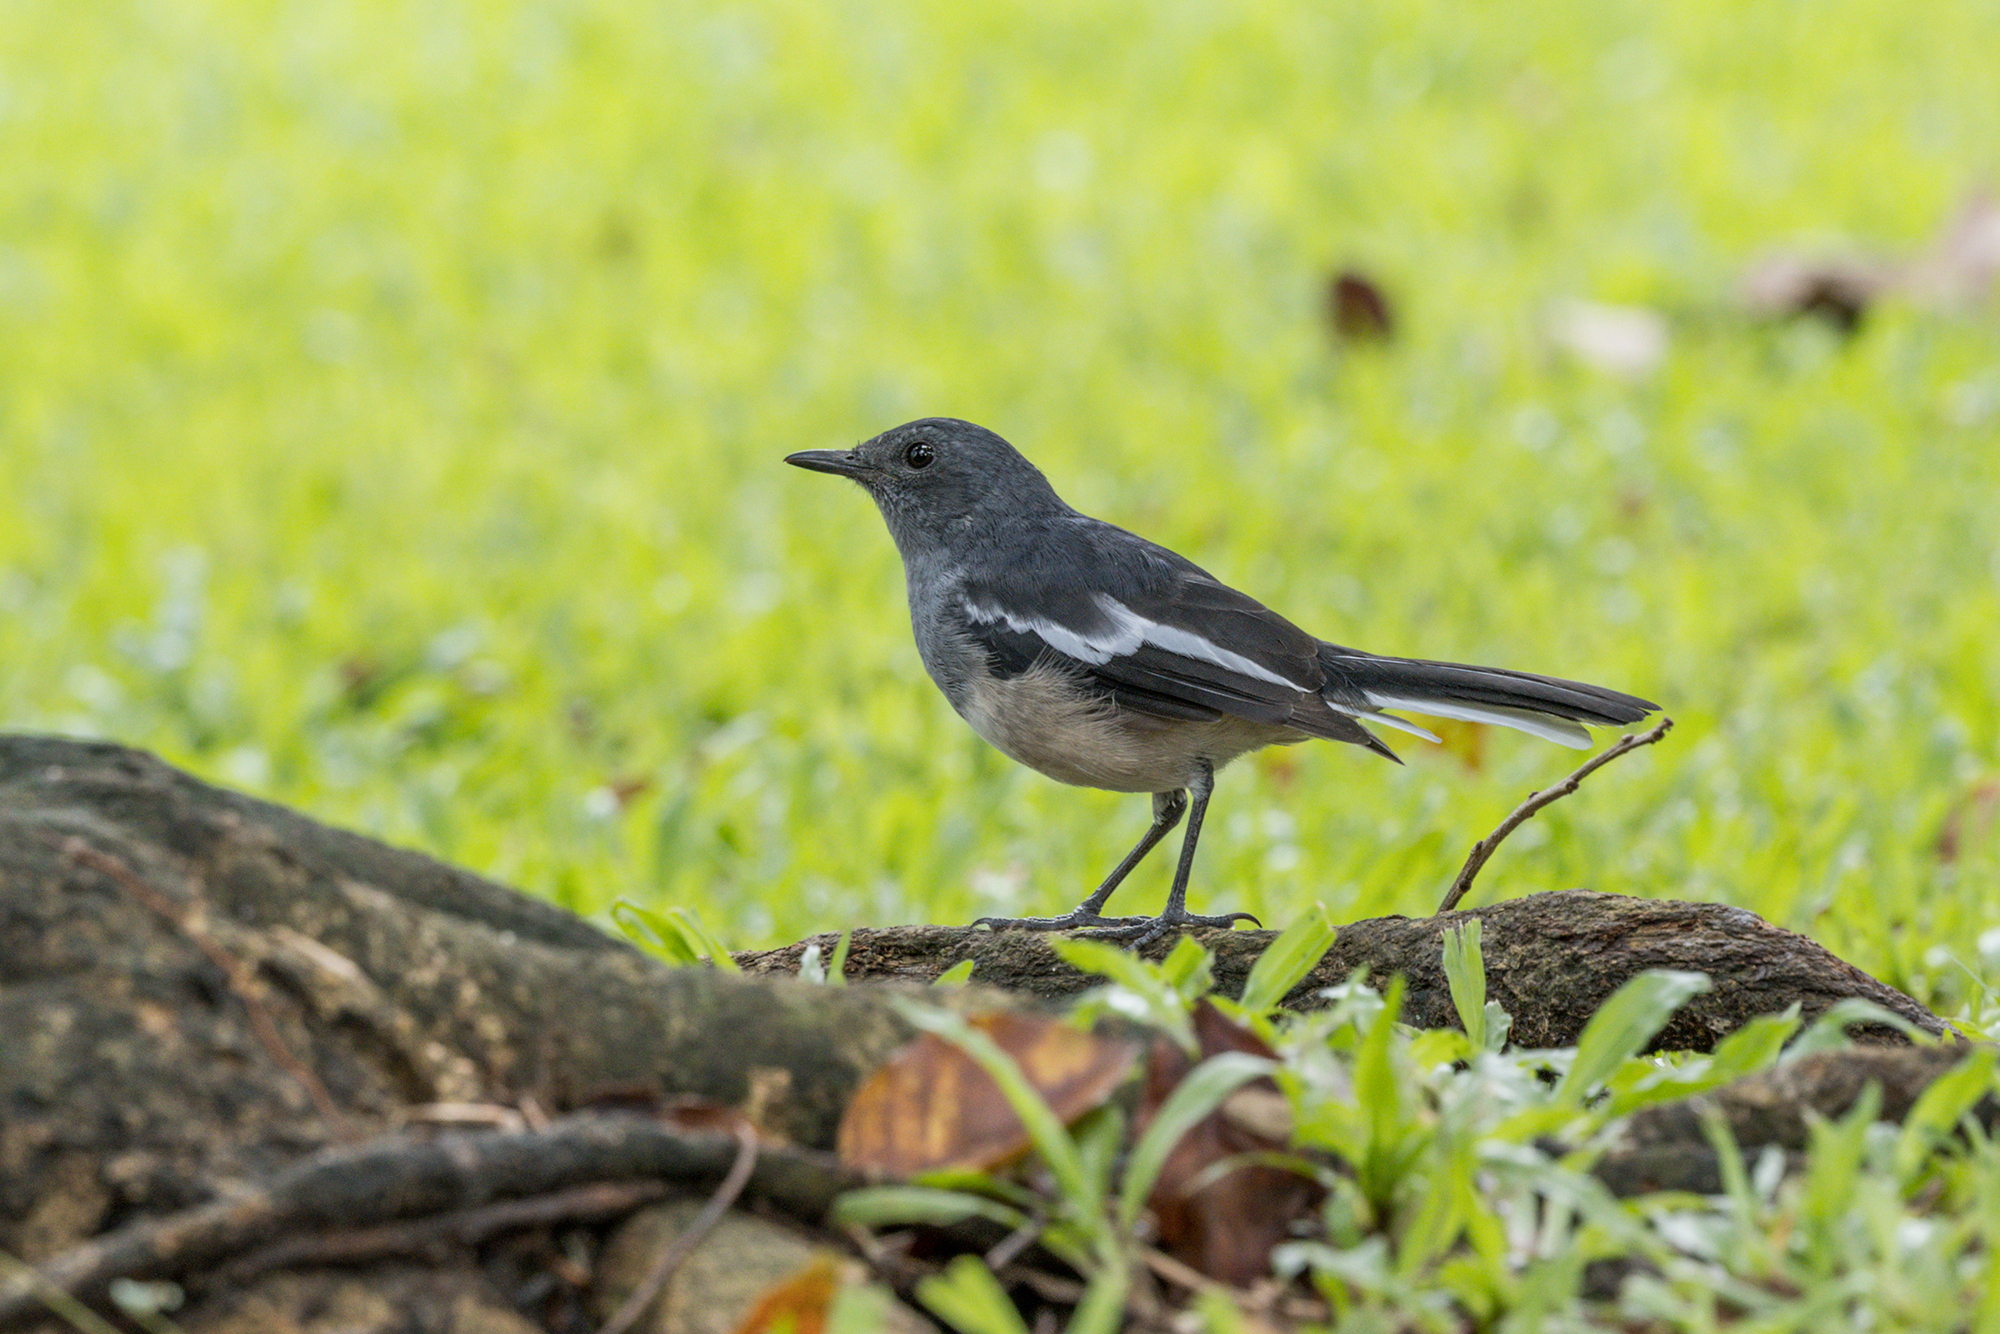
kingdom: Animalia
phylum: Chordata
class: Aves
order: Passeriformes
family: Muscicapidae
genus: Copsychus
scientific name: Copsychus saularis
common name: Oriental magpie-robin
